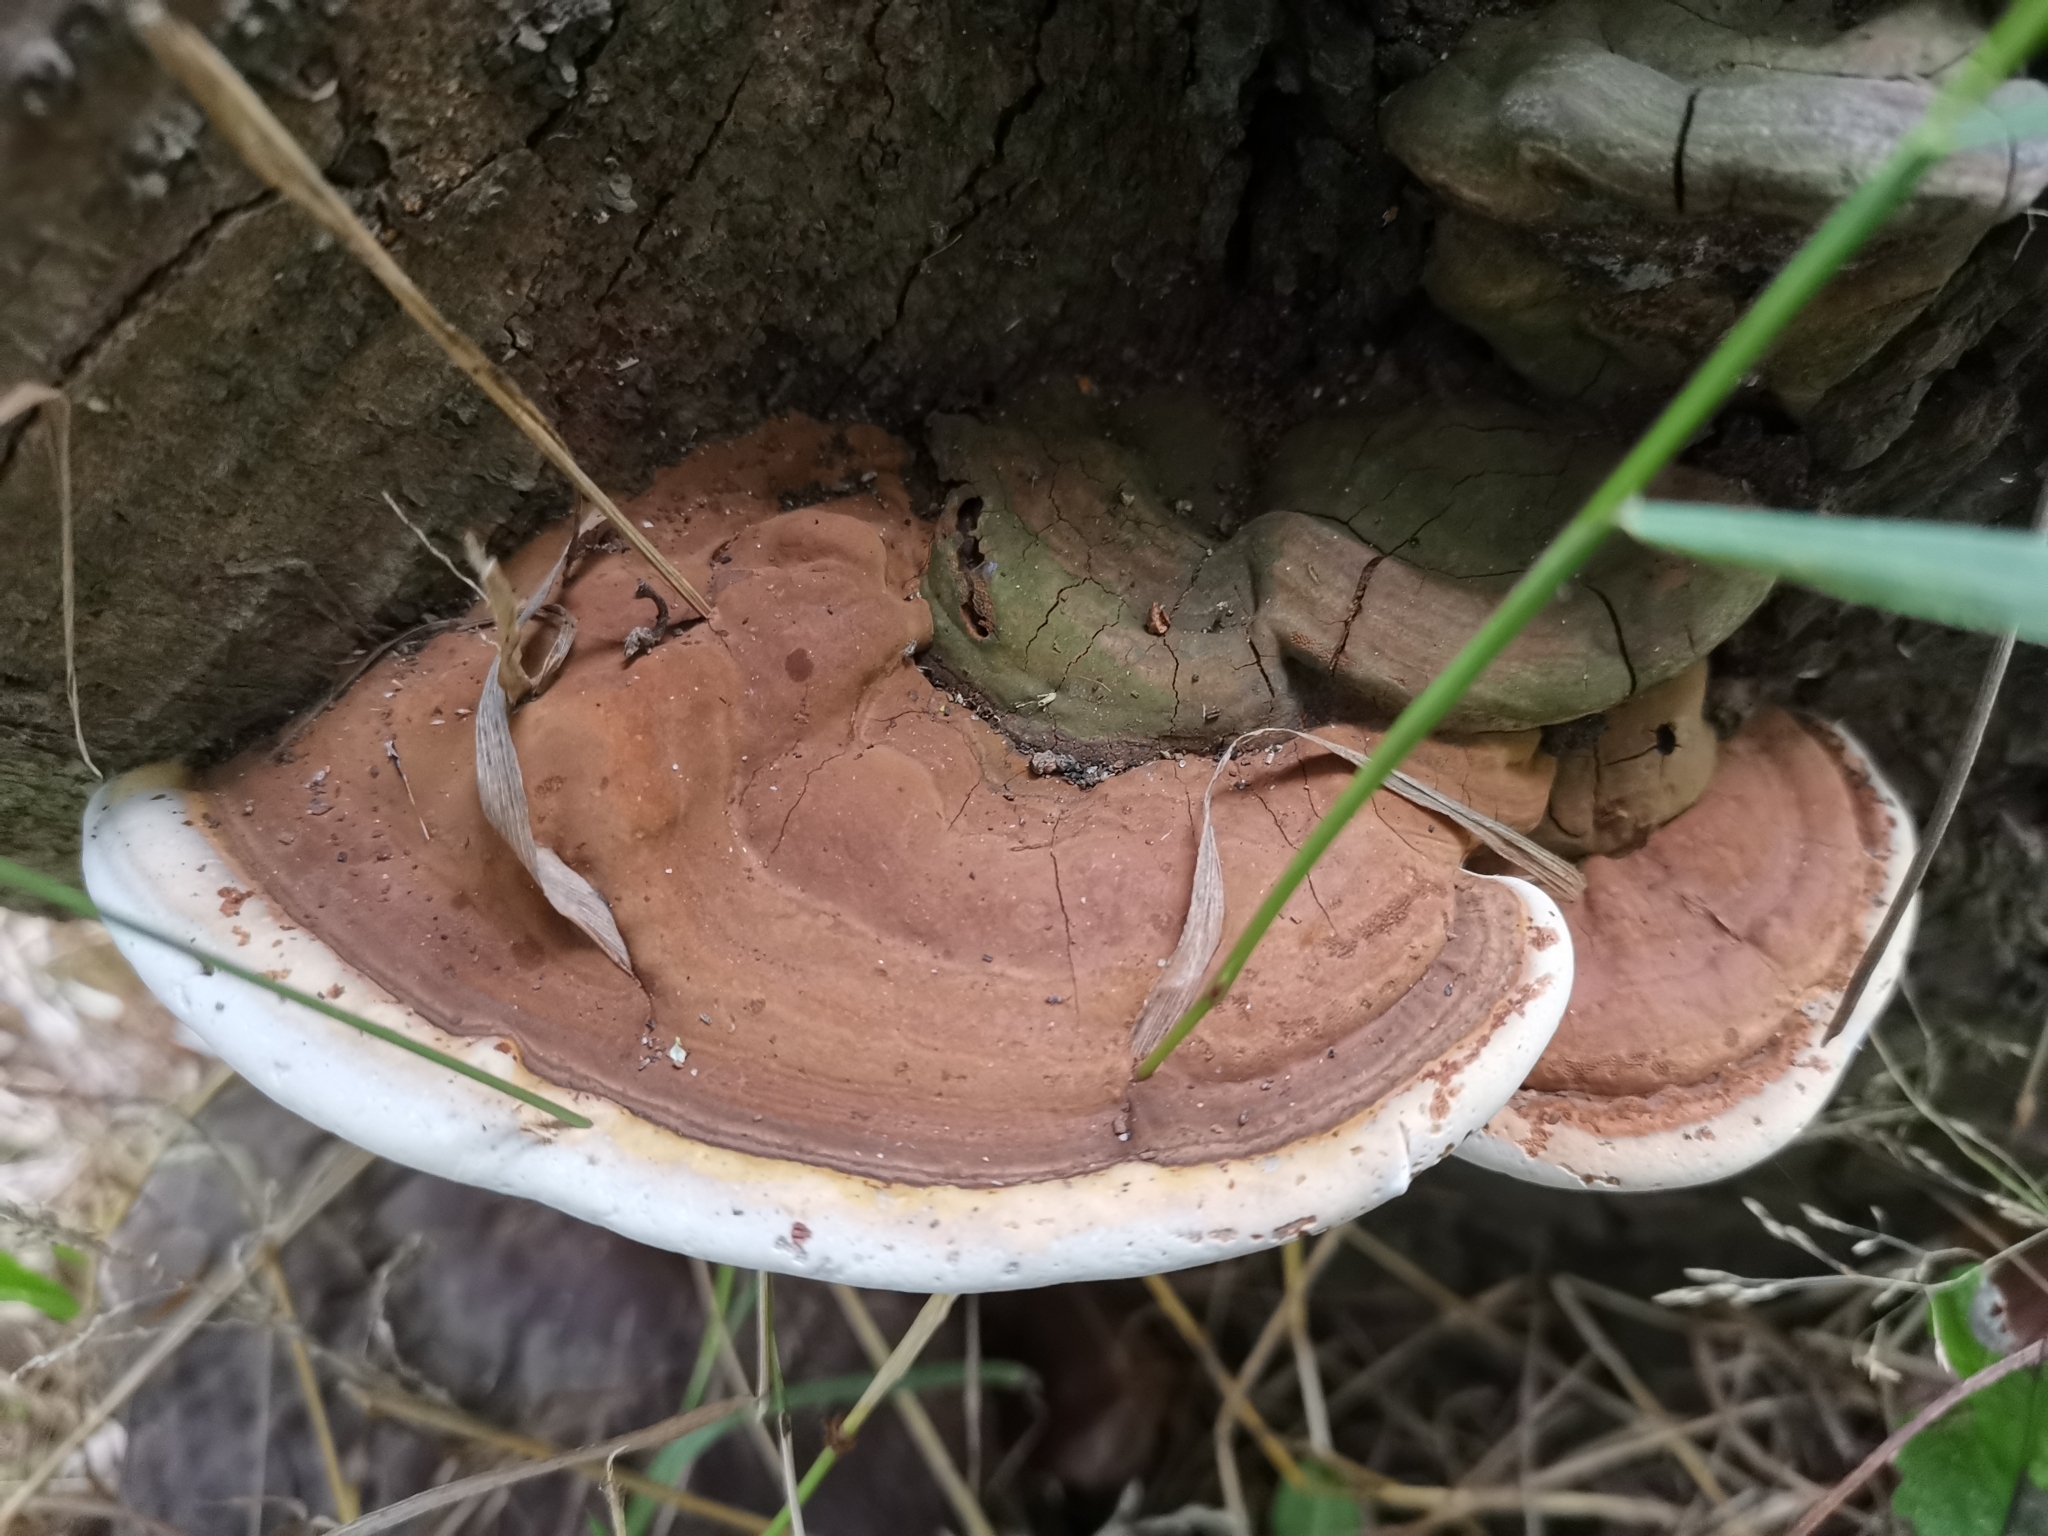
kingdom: Fungi
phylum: Basidiomycota
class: Agaricomycetes
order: Polyporales
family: Polyporaceae
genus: Ganoderma
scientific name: Ganoderma applanatum
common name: Artist's bracket
